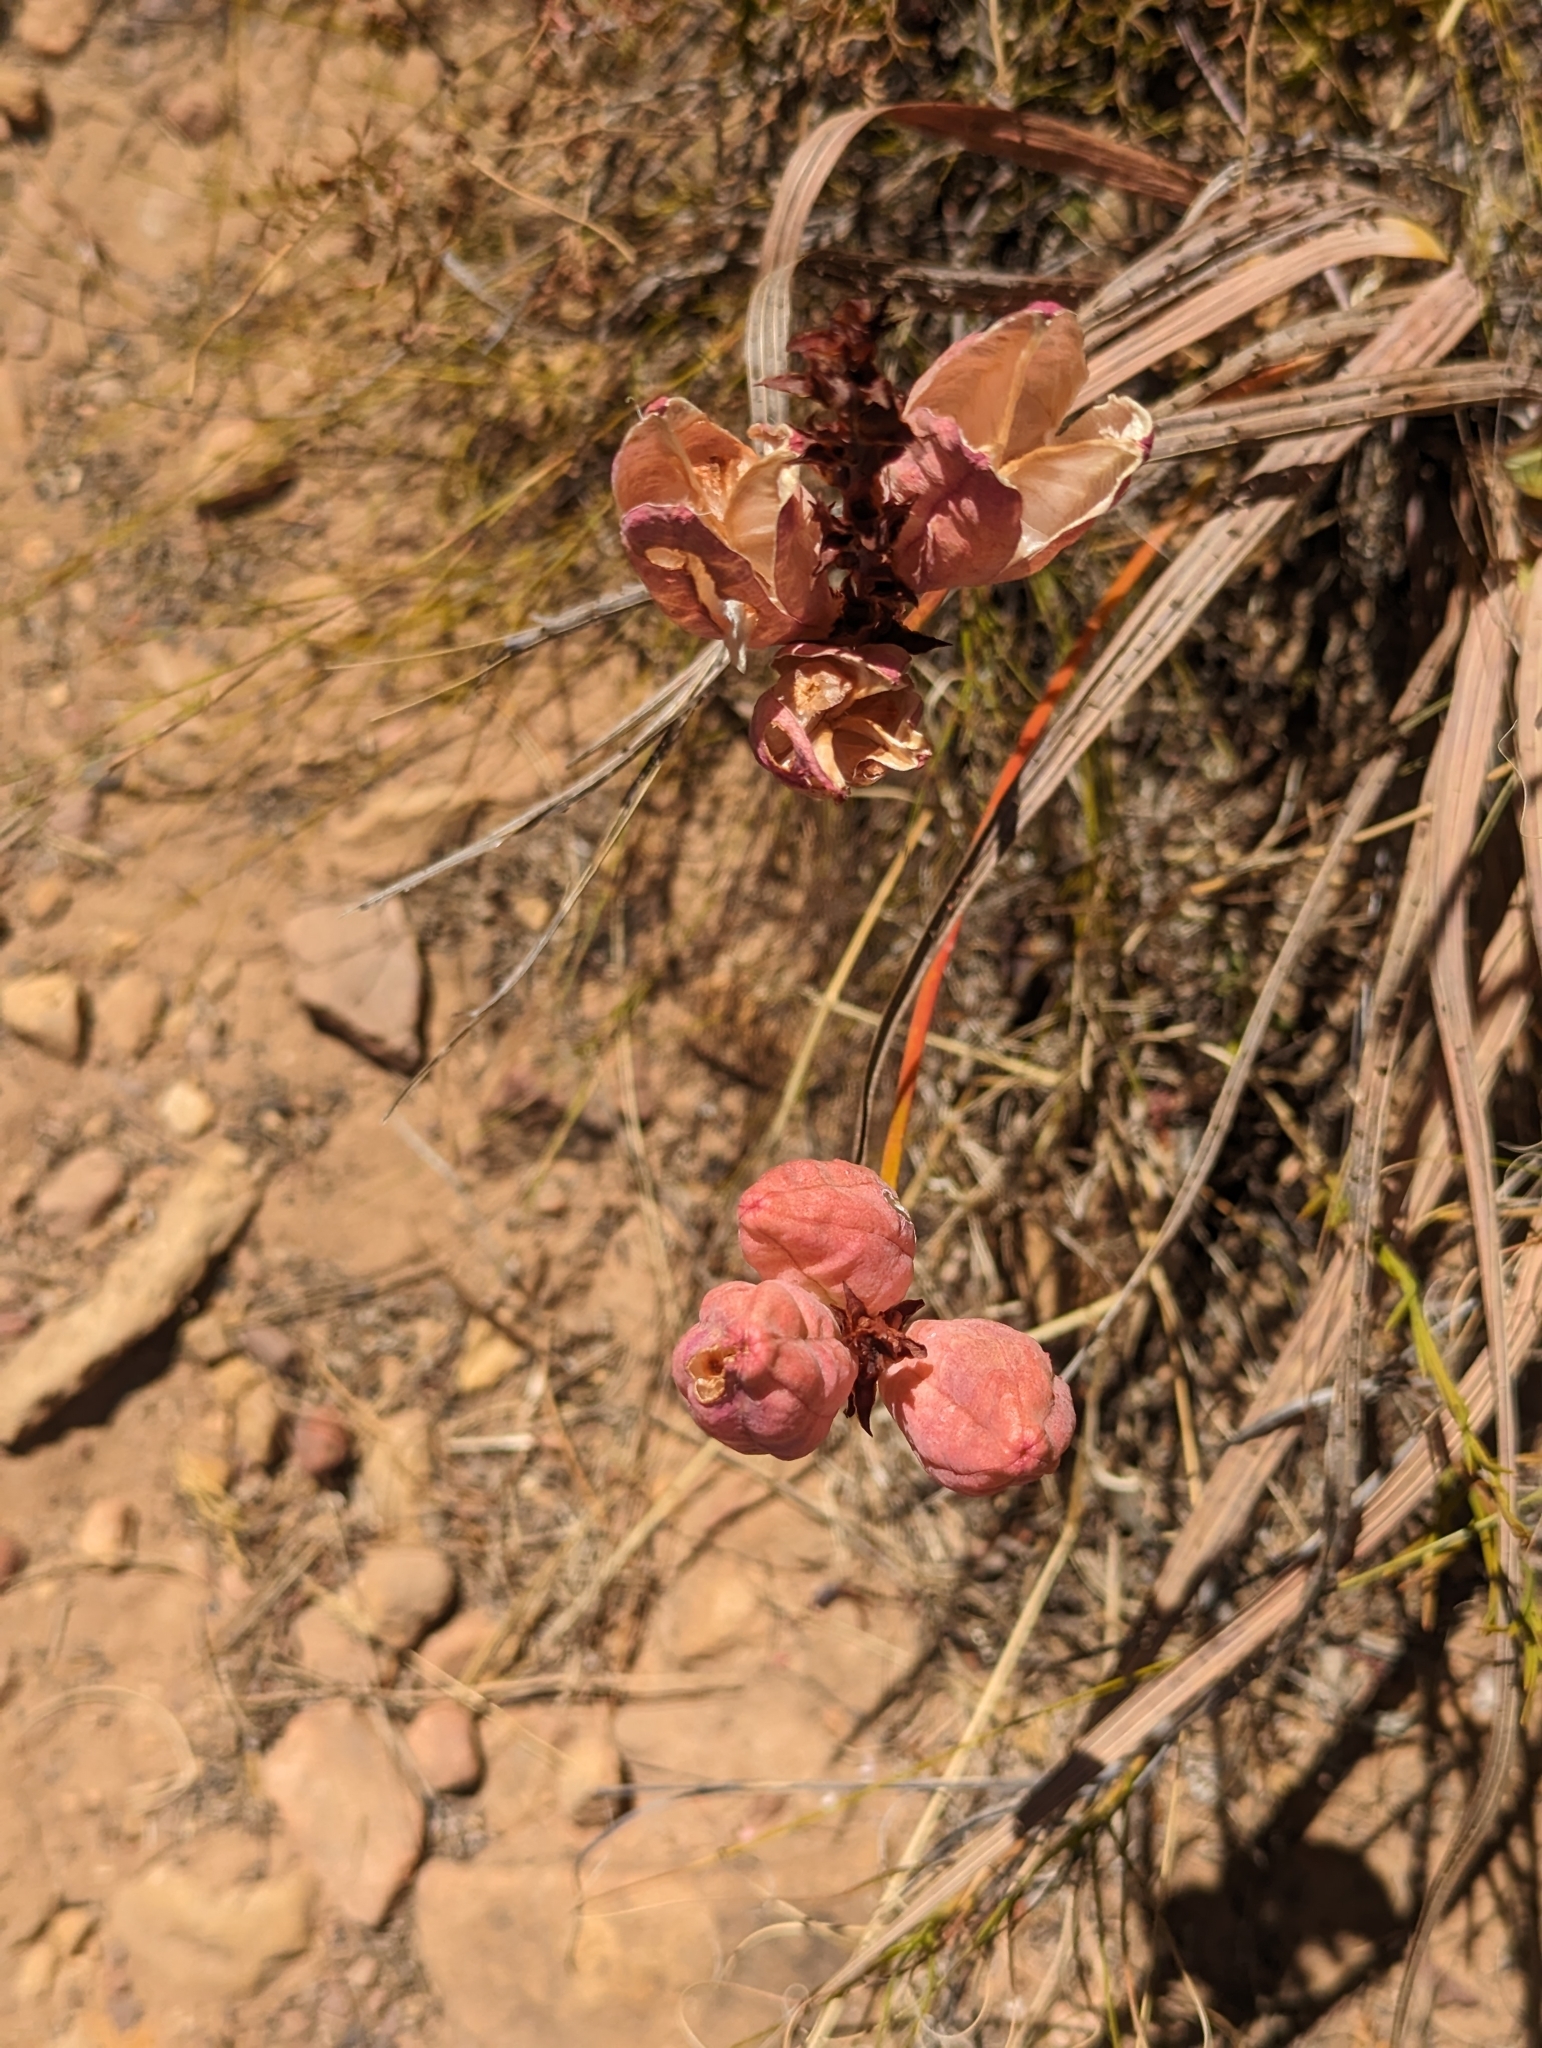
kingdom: Plantae
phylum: Tracheophyta
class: Liliopsida
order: Asparagales
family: Iridaceae
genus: Tritoniopsis
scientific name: Tritoniopsis antholyza
